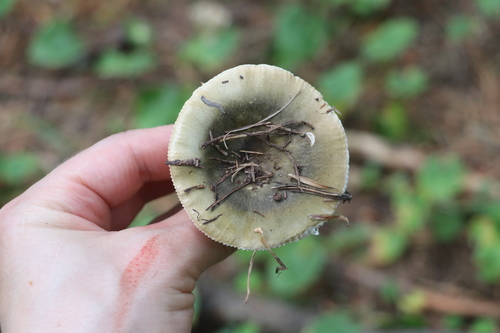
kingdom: Fungi
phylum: Basidiomycota
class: Agaricomycetes
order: Russulales
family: Russulaceae
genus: Russula
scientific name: Russula vesca
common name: Bare-toothed russula
